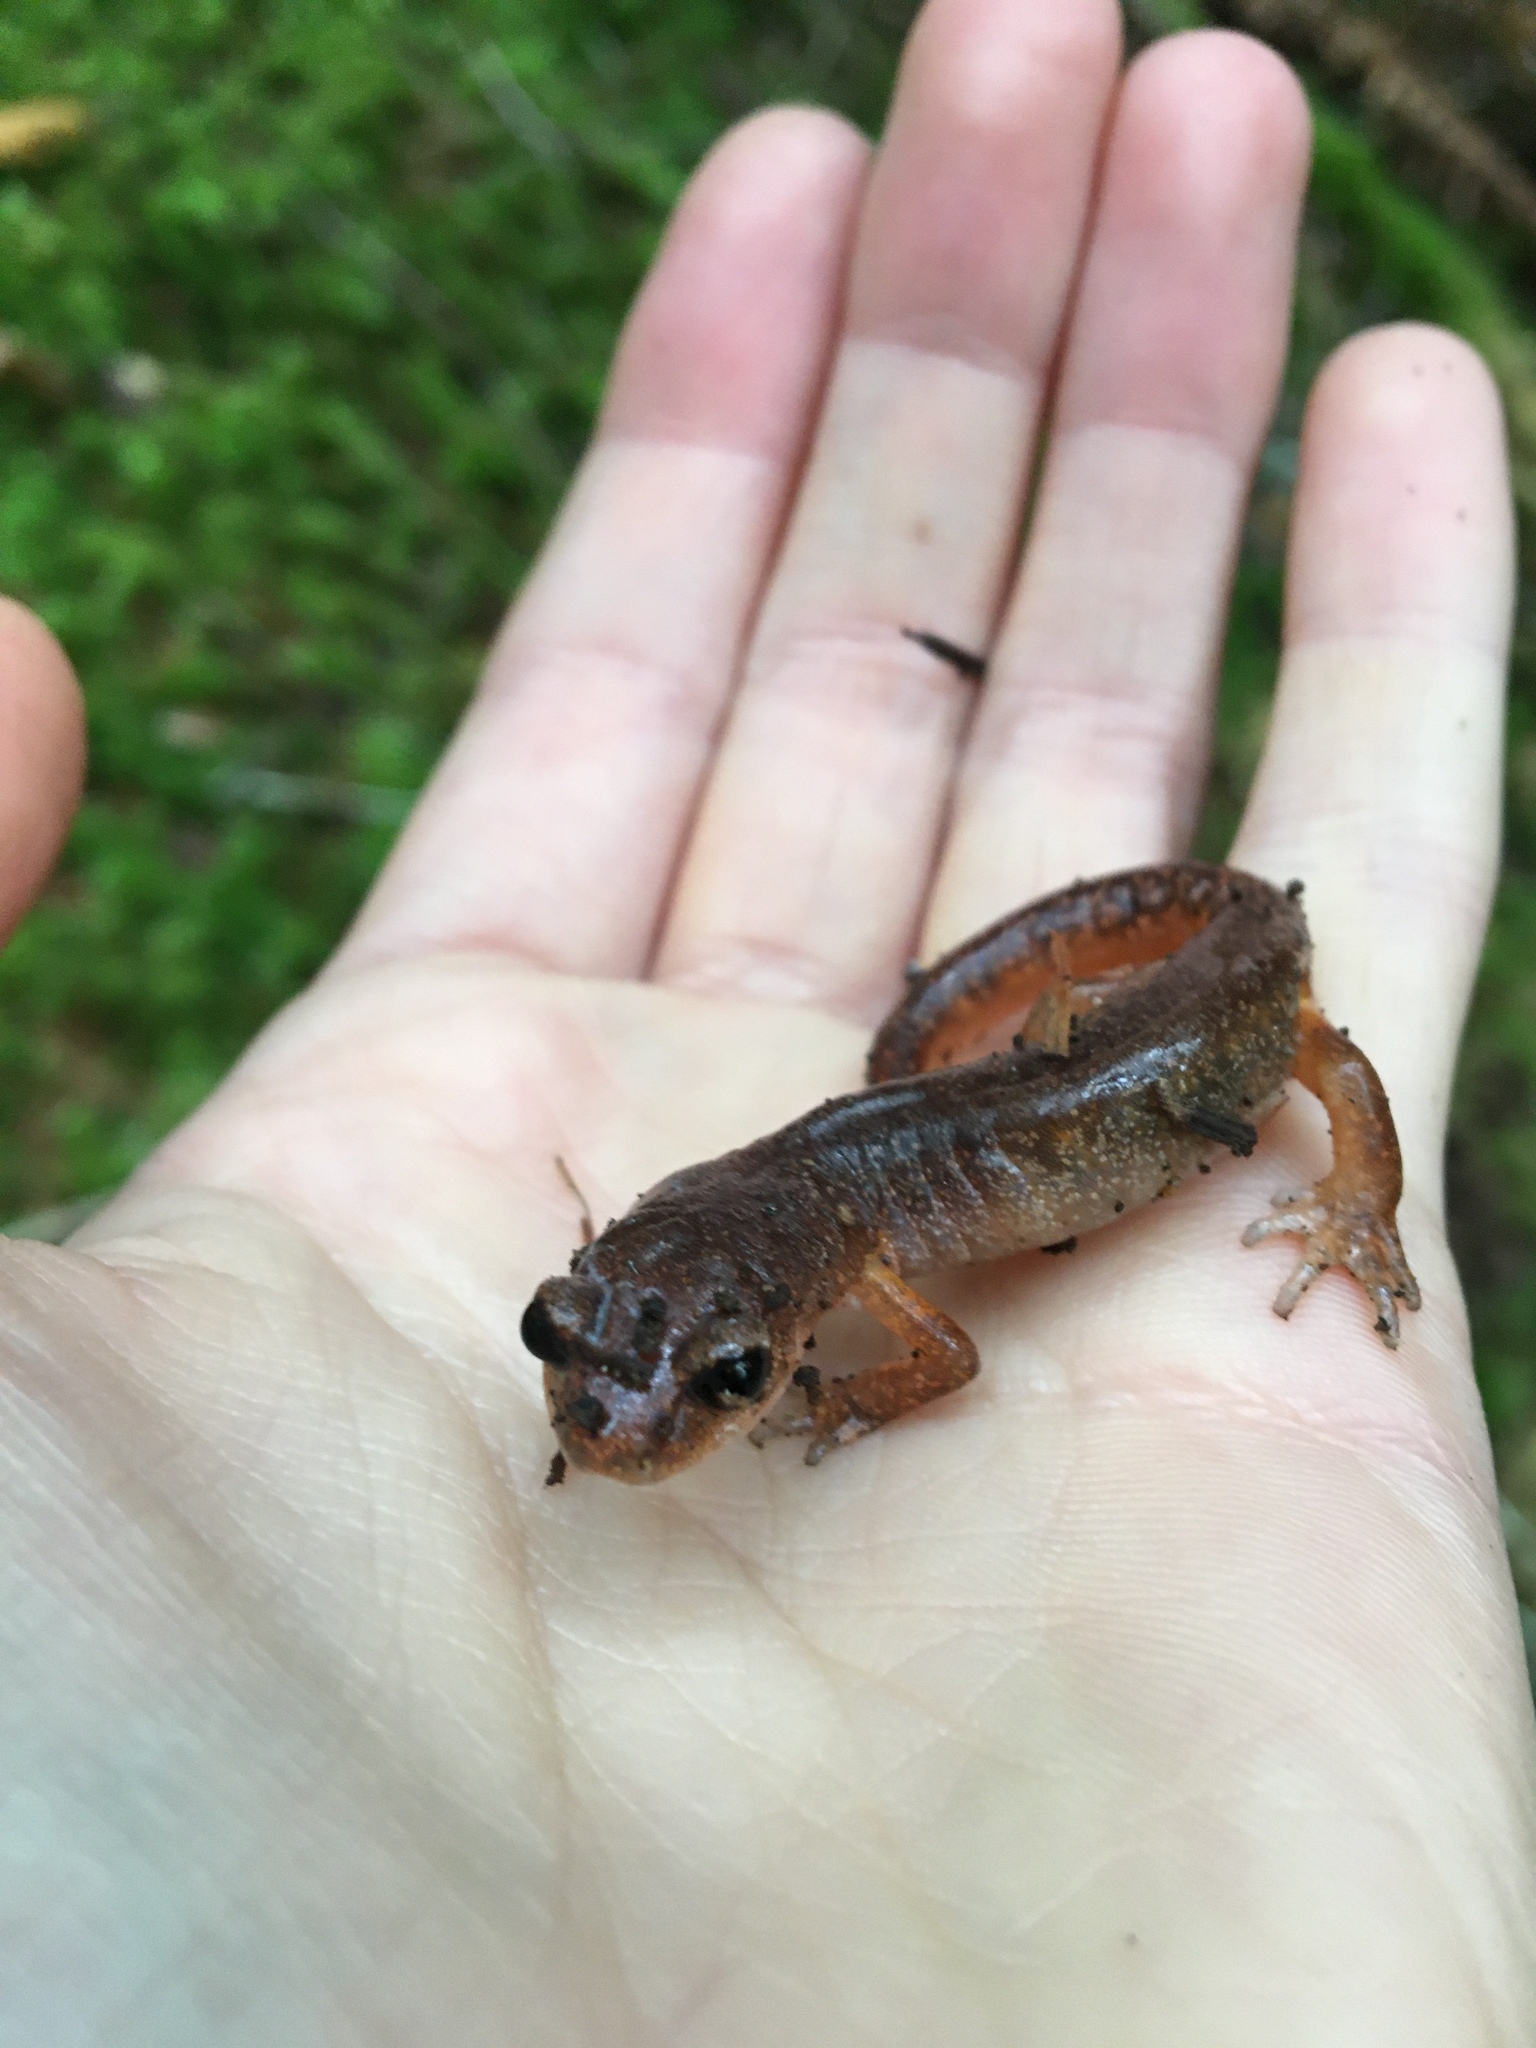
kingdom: Animalia
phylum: Chordata
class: Amphibia
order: Caudata
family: Plethodontidae
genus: Ensatina
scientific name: Ensatina eschscholtzii
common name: Ensatina
